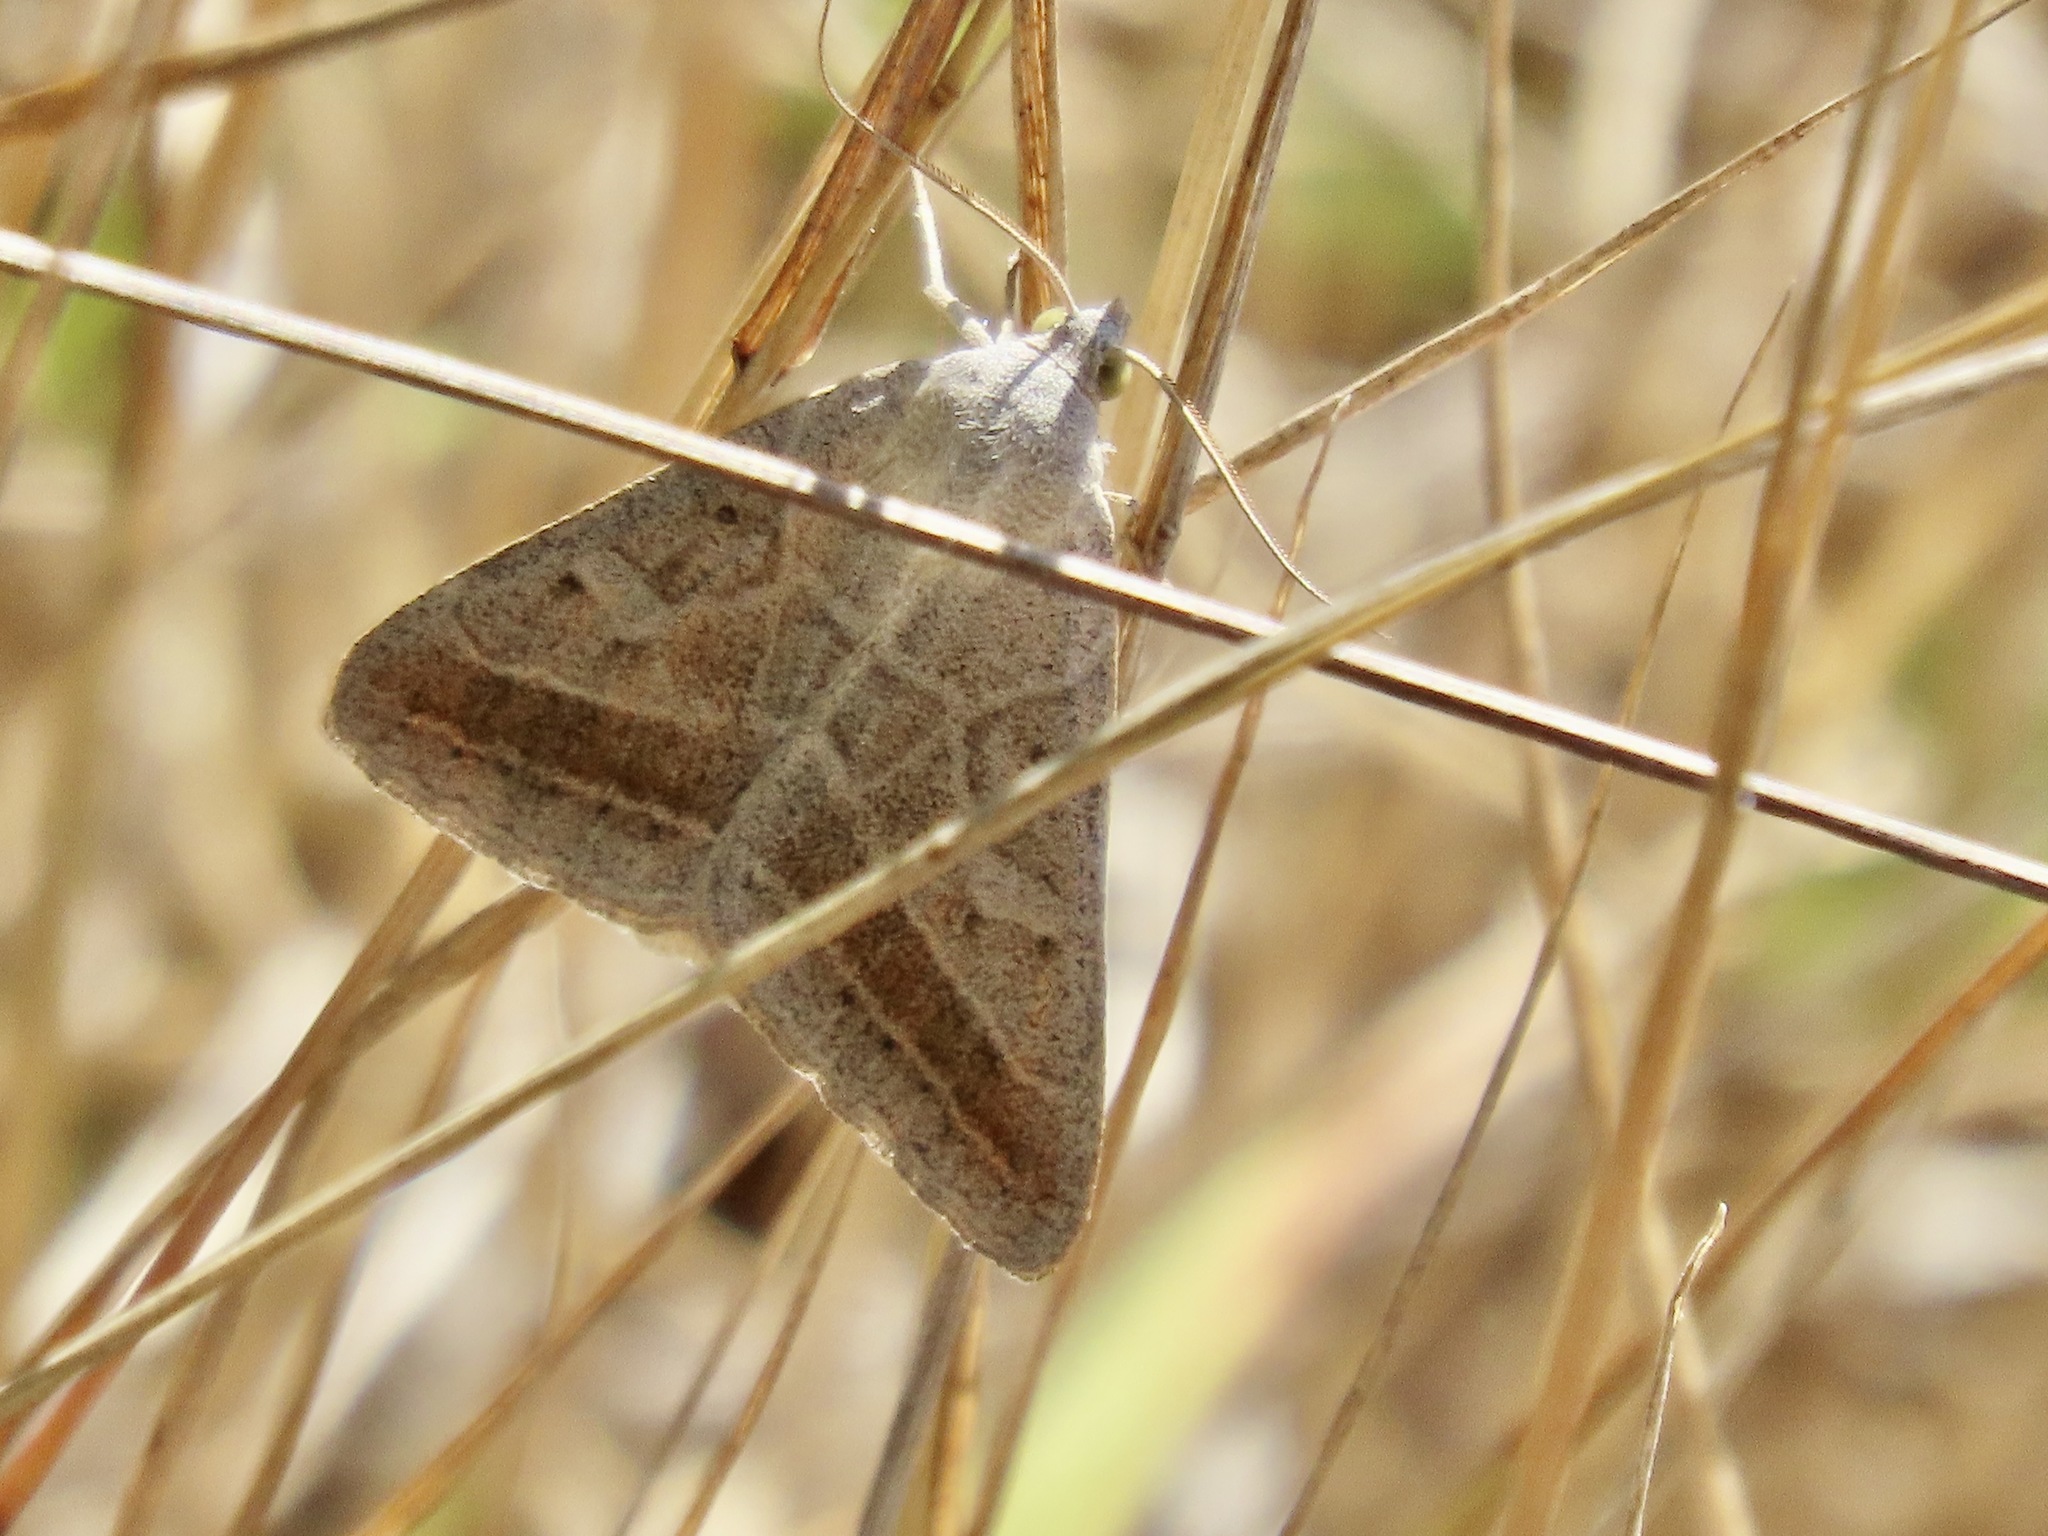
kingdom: Animalia
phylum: Arthropoda
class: Insecta
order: Lepidoptera
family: Erebidae
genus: Caenurgia
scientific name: Caenurgia togataria
